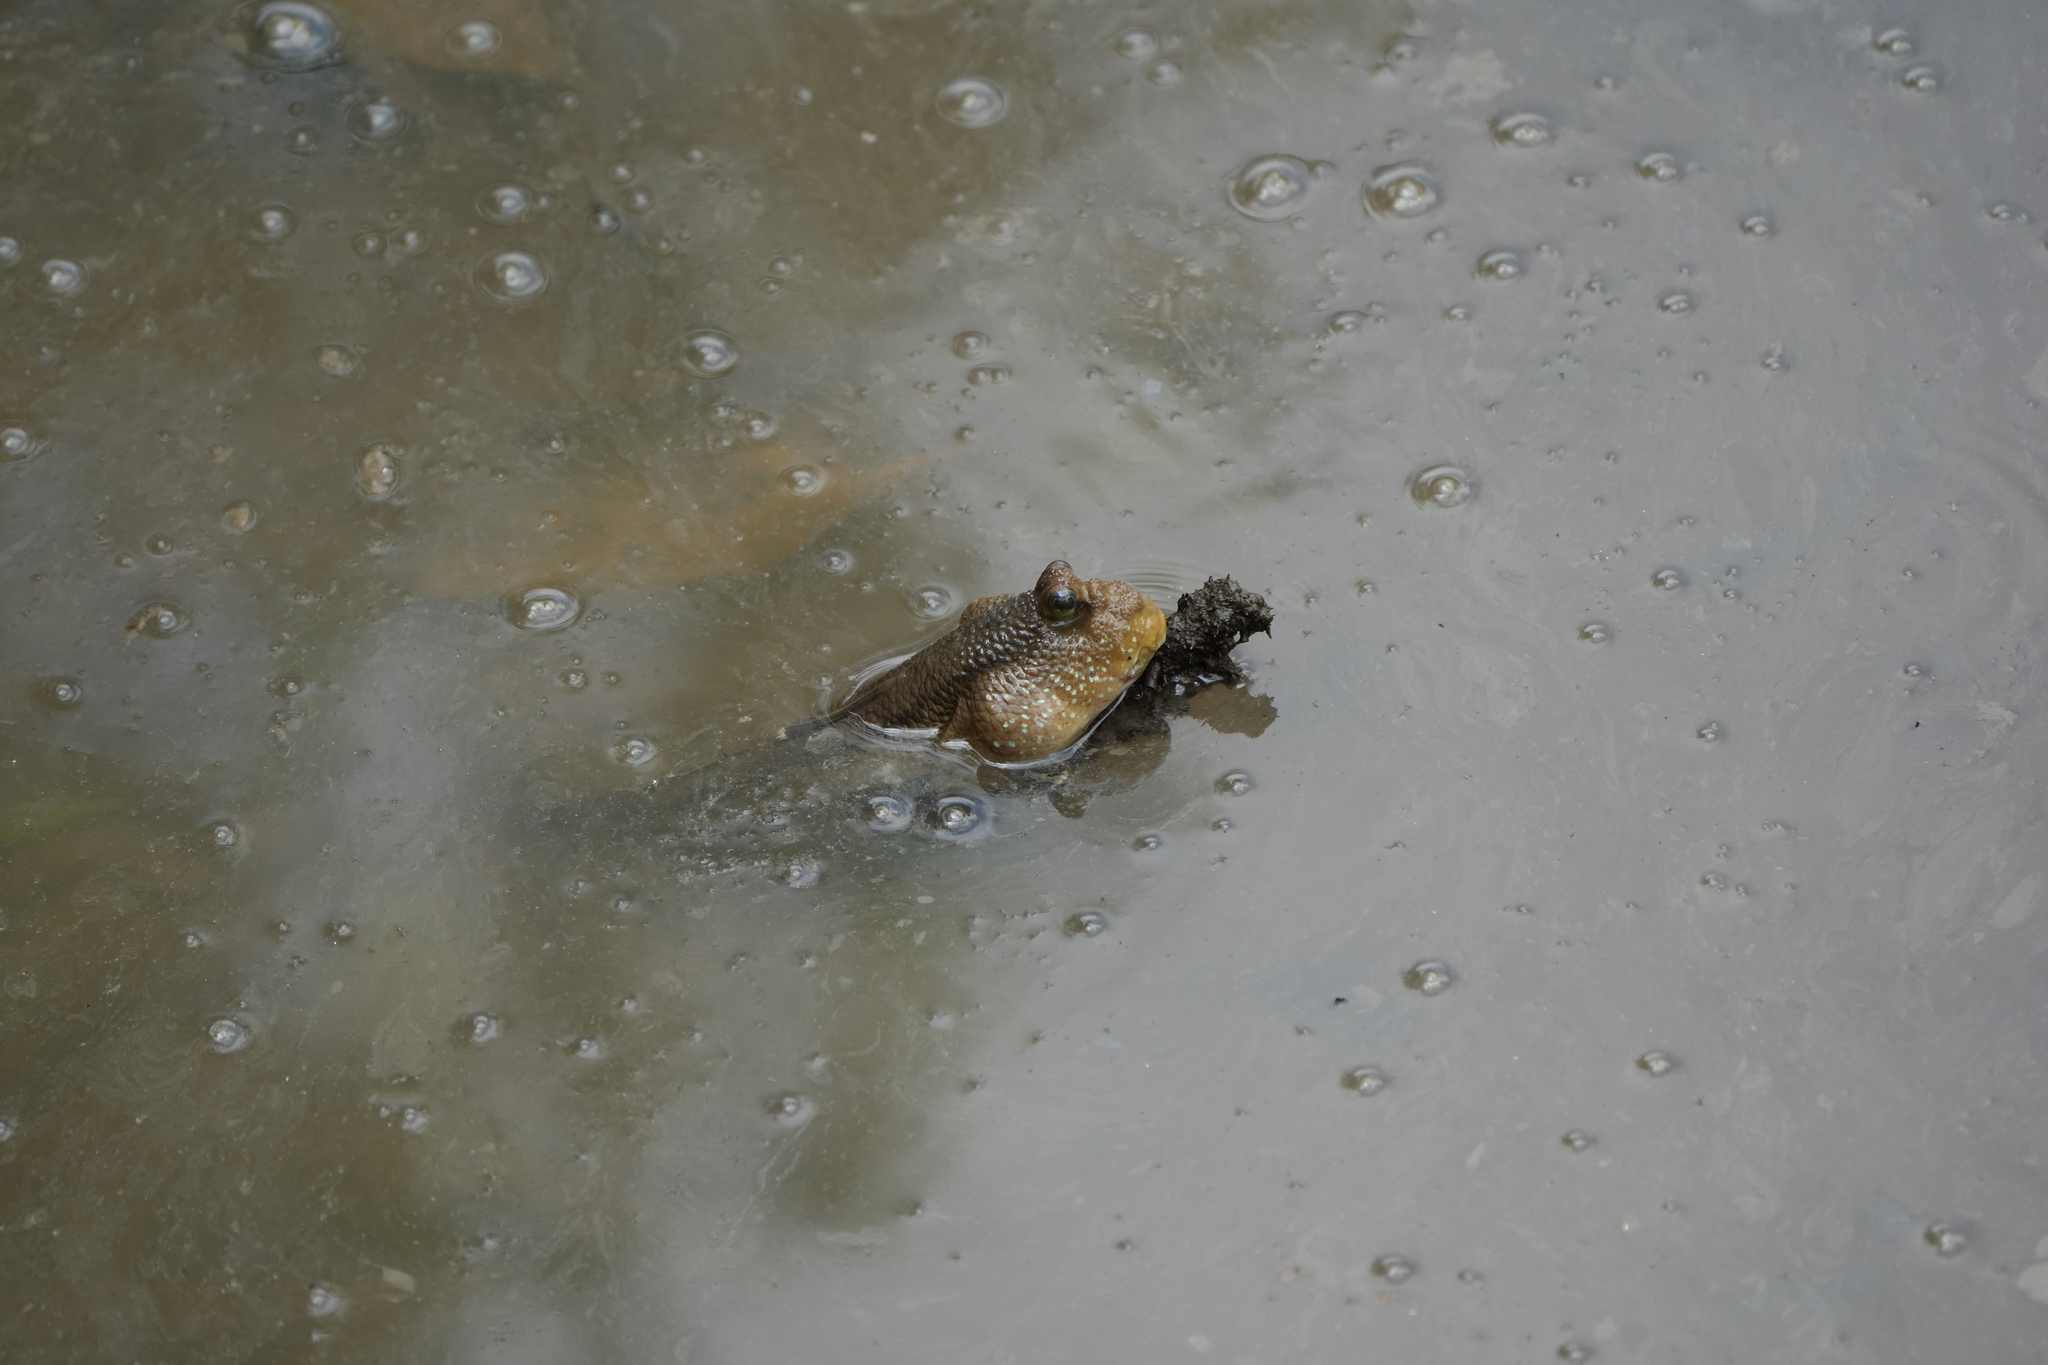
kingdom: Animalia
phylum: Chordata
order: Perciformes
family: Gobiidae
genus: Periophthalmodon
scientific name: Periophthalmodon schlosseri
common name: Giant mudskipper
